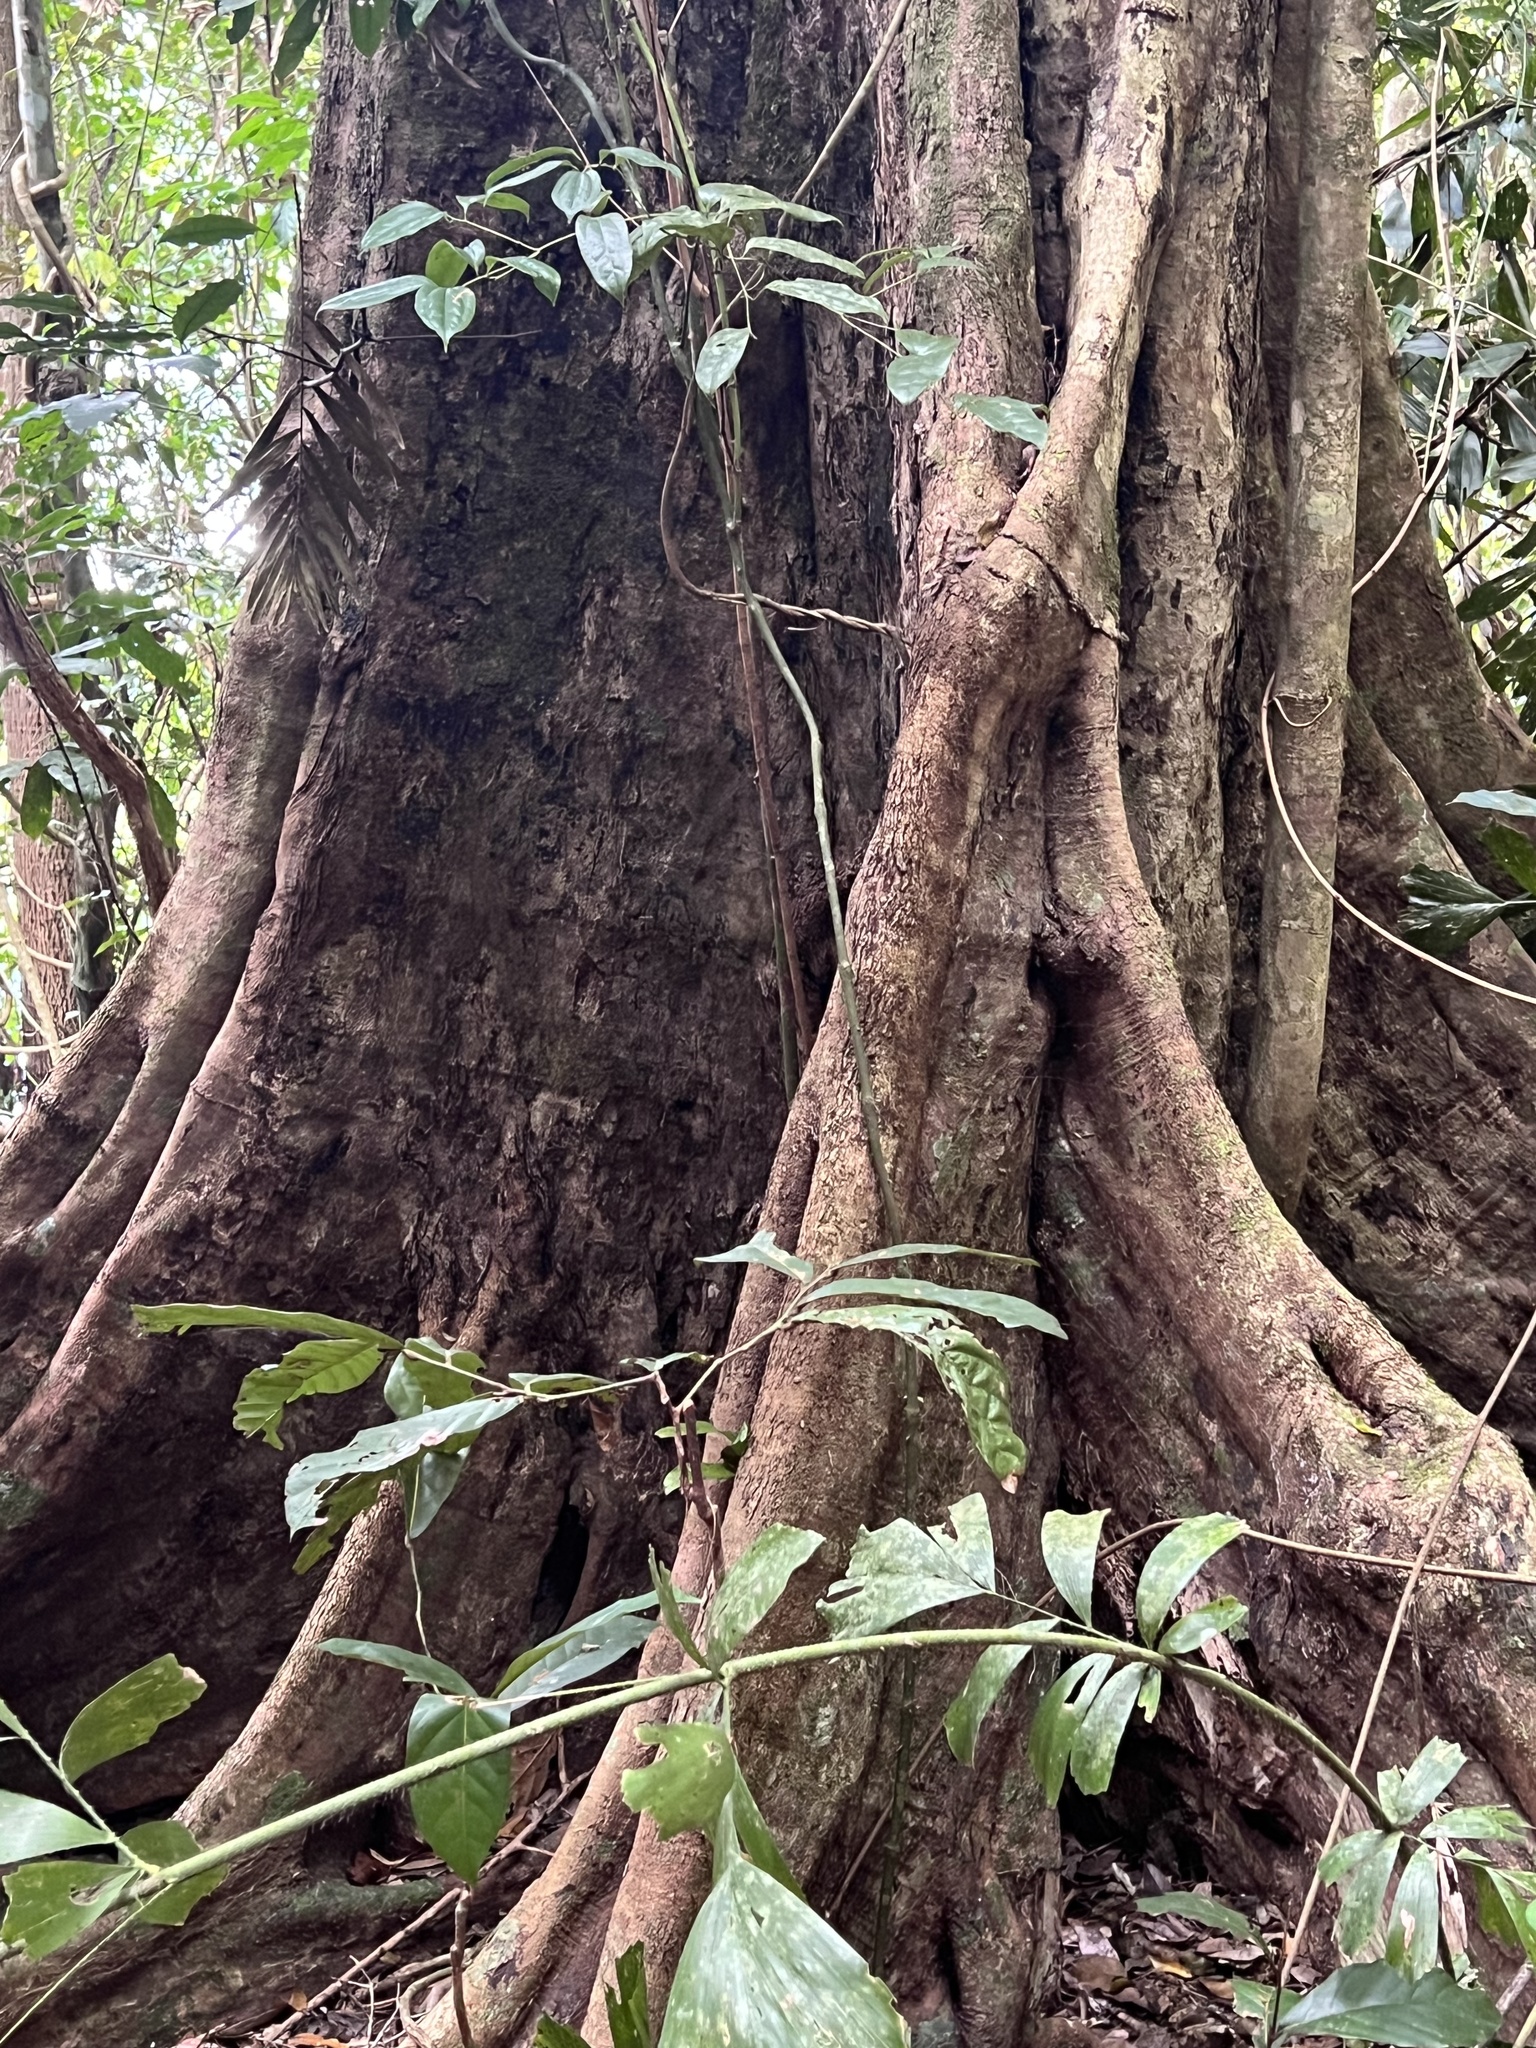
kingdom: Plantae
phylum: Tracheophyta
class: Magnoliopsida
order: Piperales
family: Piperaceae
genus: Piper
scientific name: Piper hederaceum
